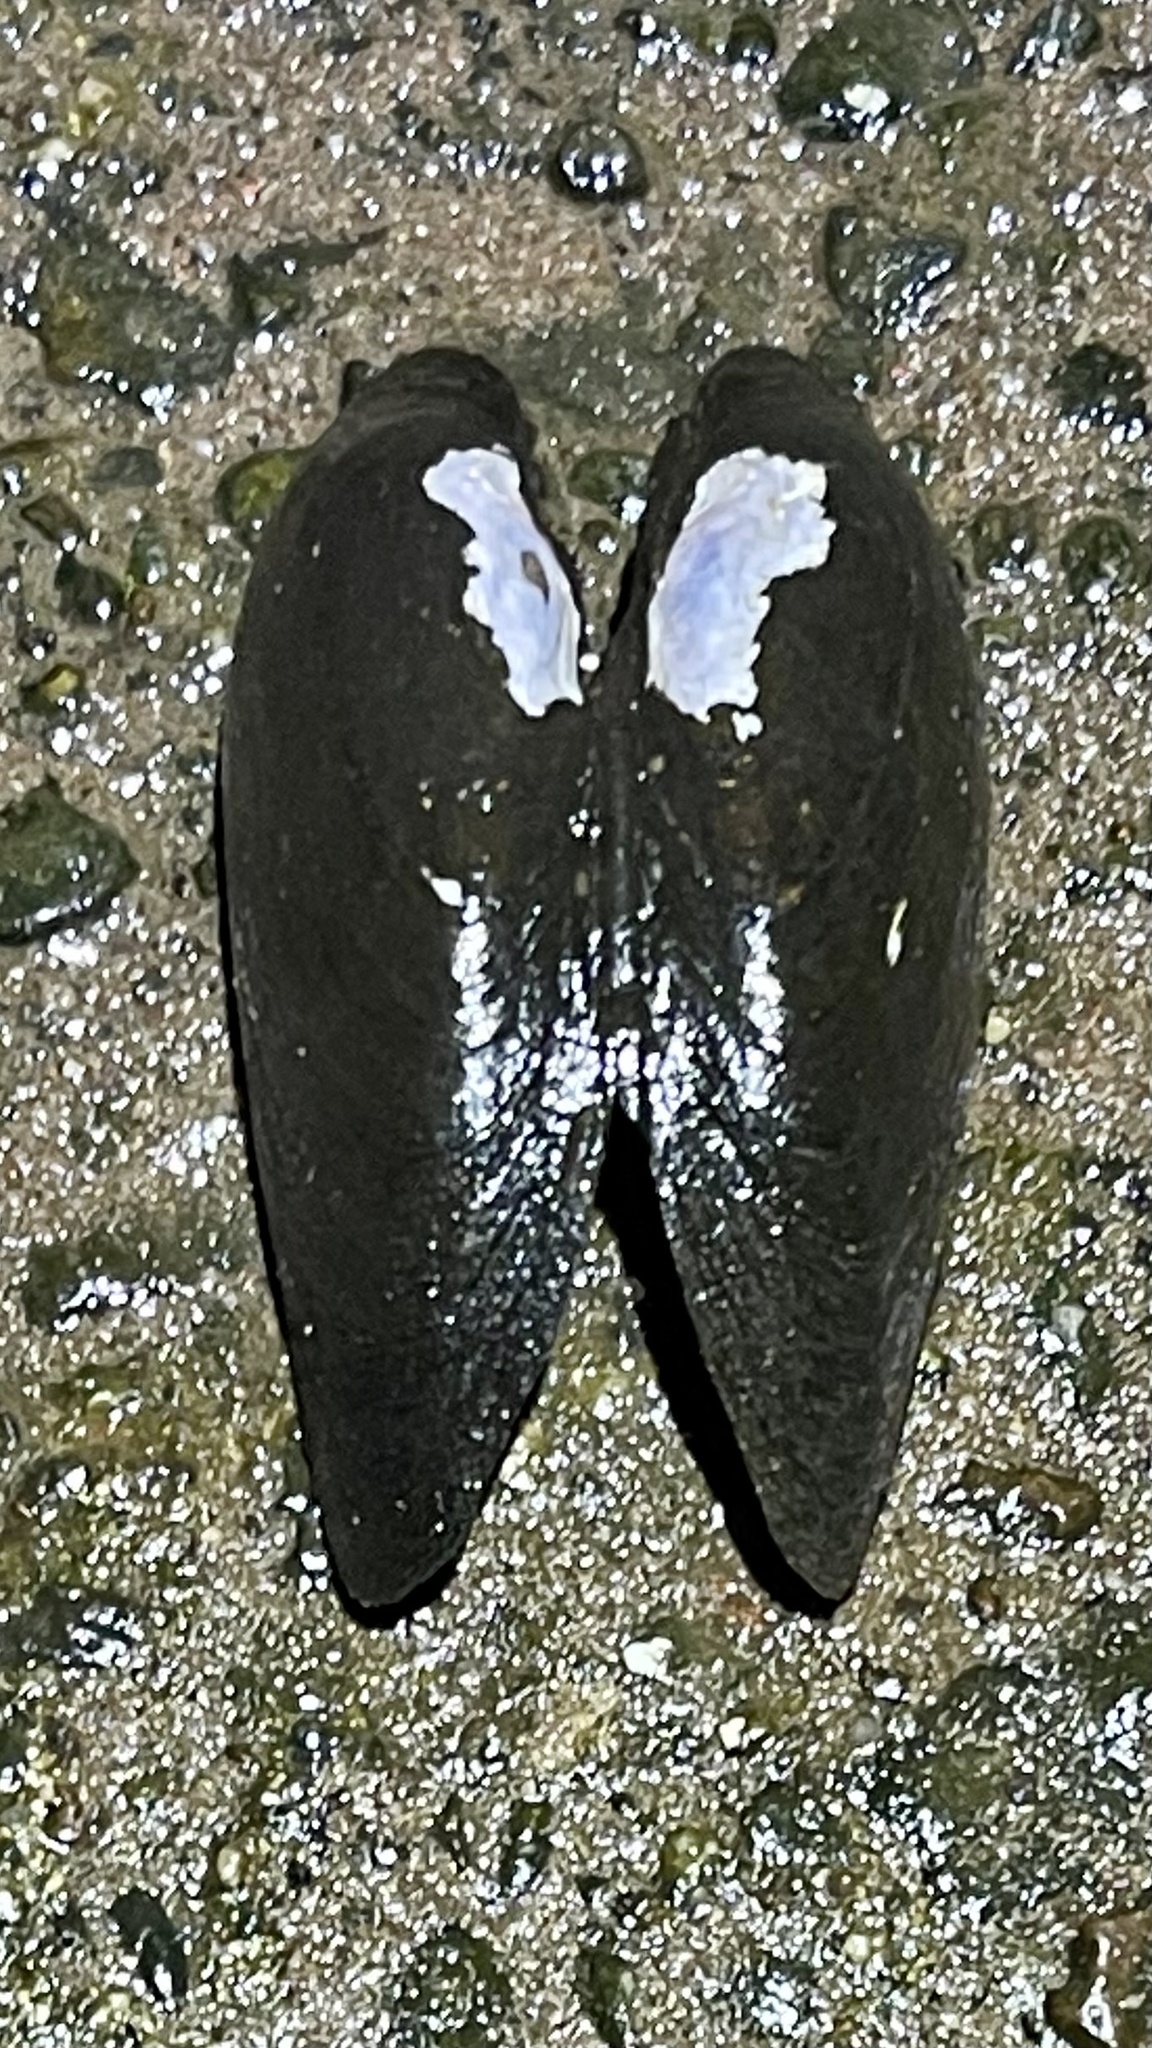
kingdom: Animalia
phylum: Mollusca
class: Bivalvia
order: Unionida
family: Unionidae
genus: Eurynia
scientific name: Eurynia dilatata
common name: Spike
